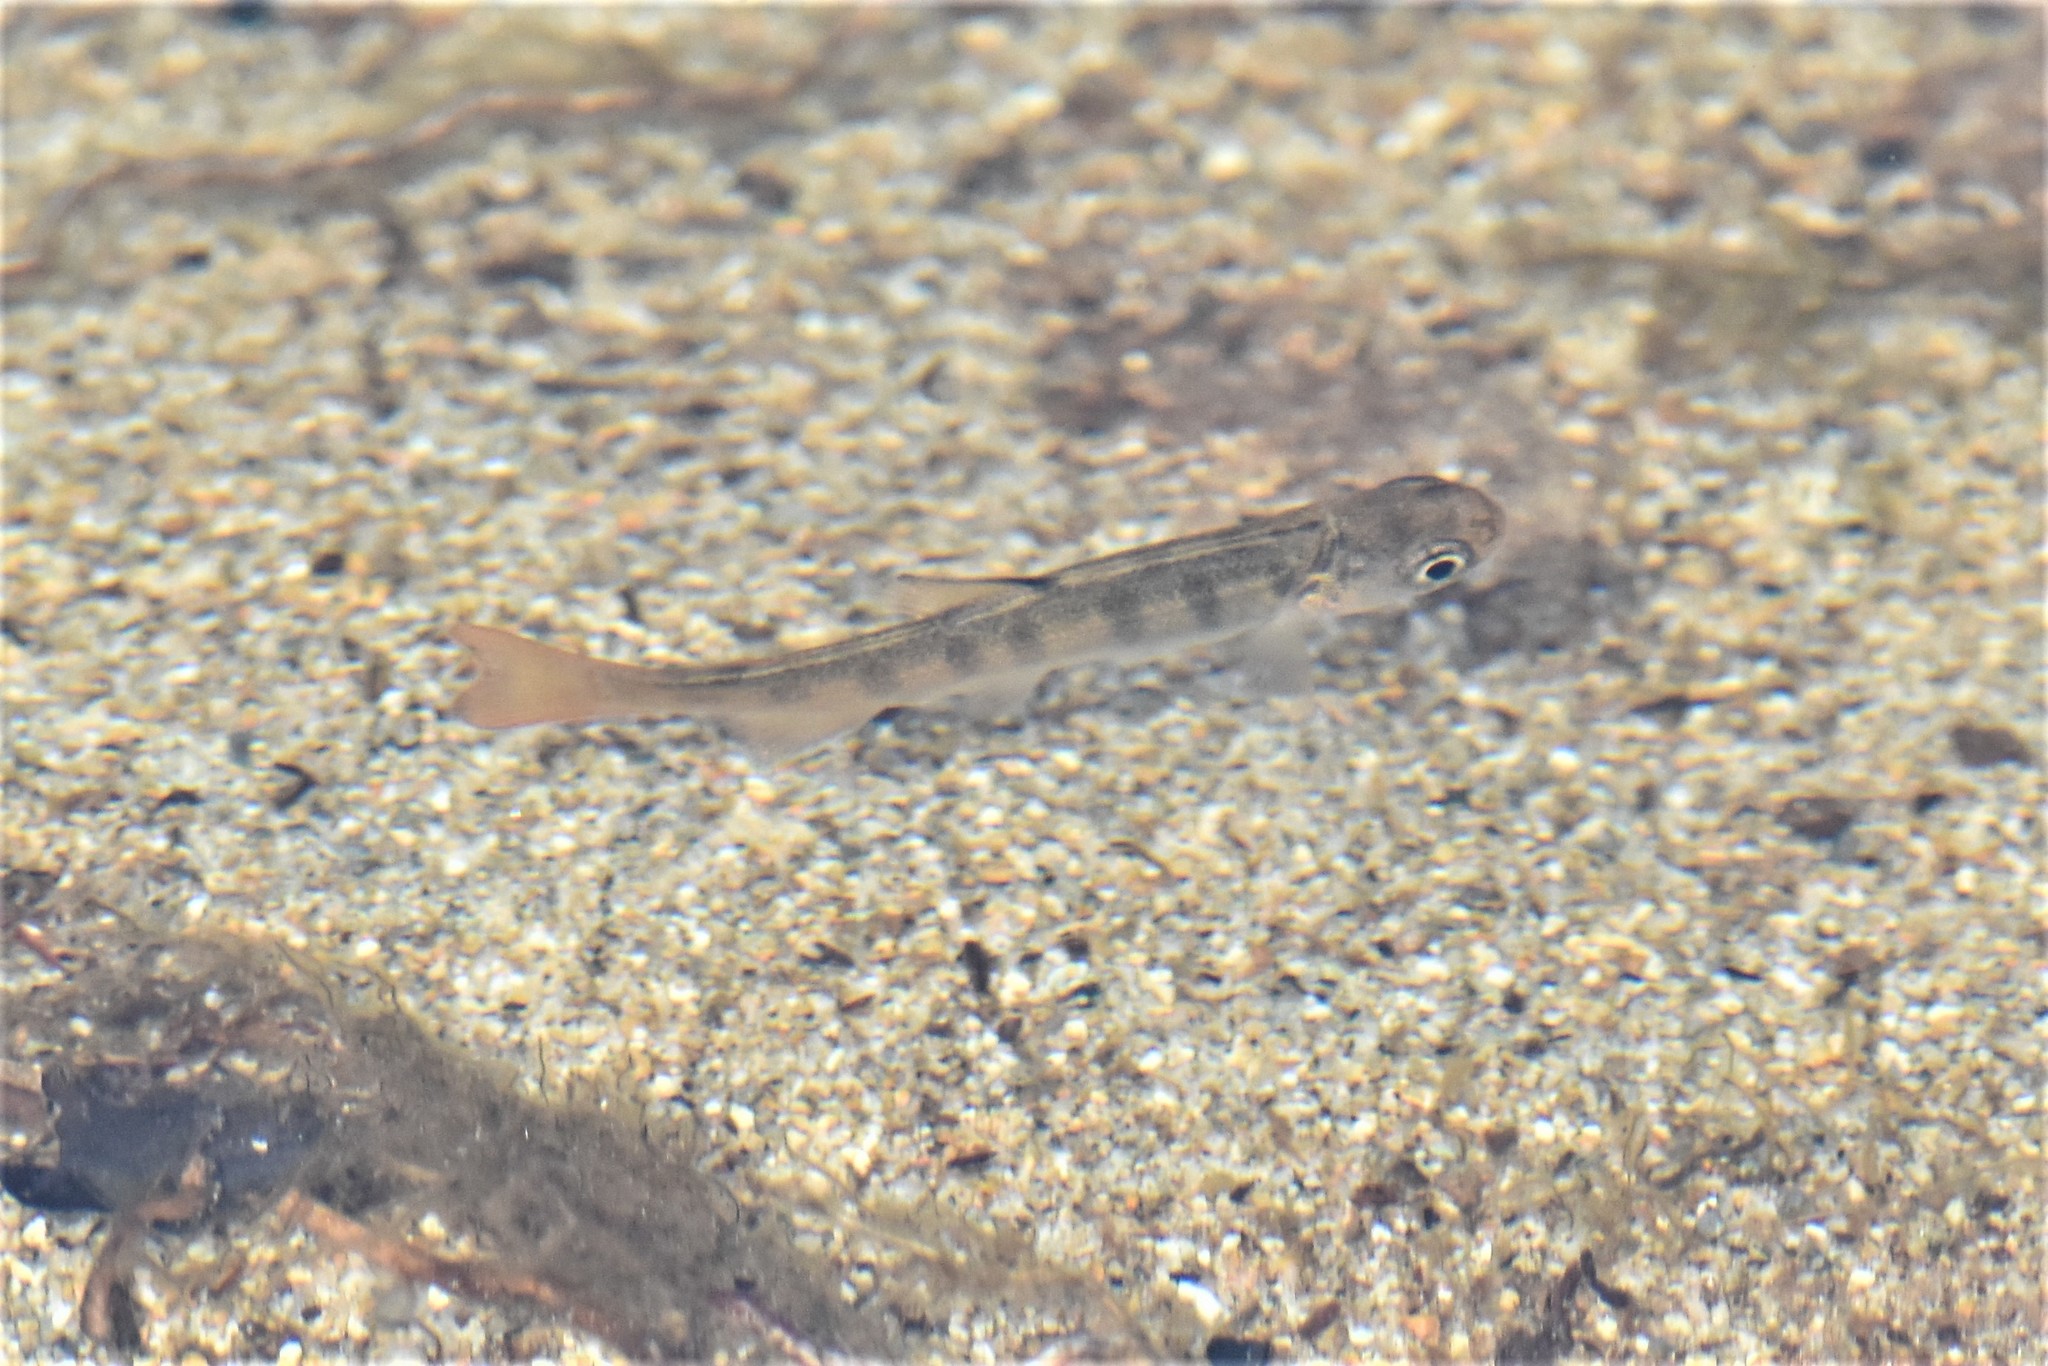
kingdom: Animalia
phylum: Chordata
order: Salmoniformes
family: Salmonidae
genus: Oncorhynchus
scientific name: Oncorhynchus kisutch
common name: Coho salmon
